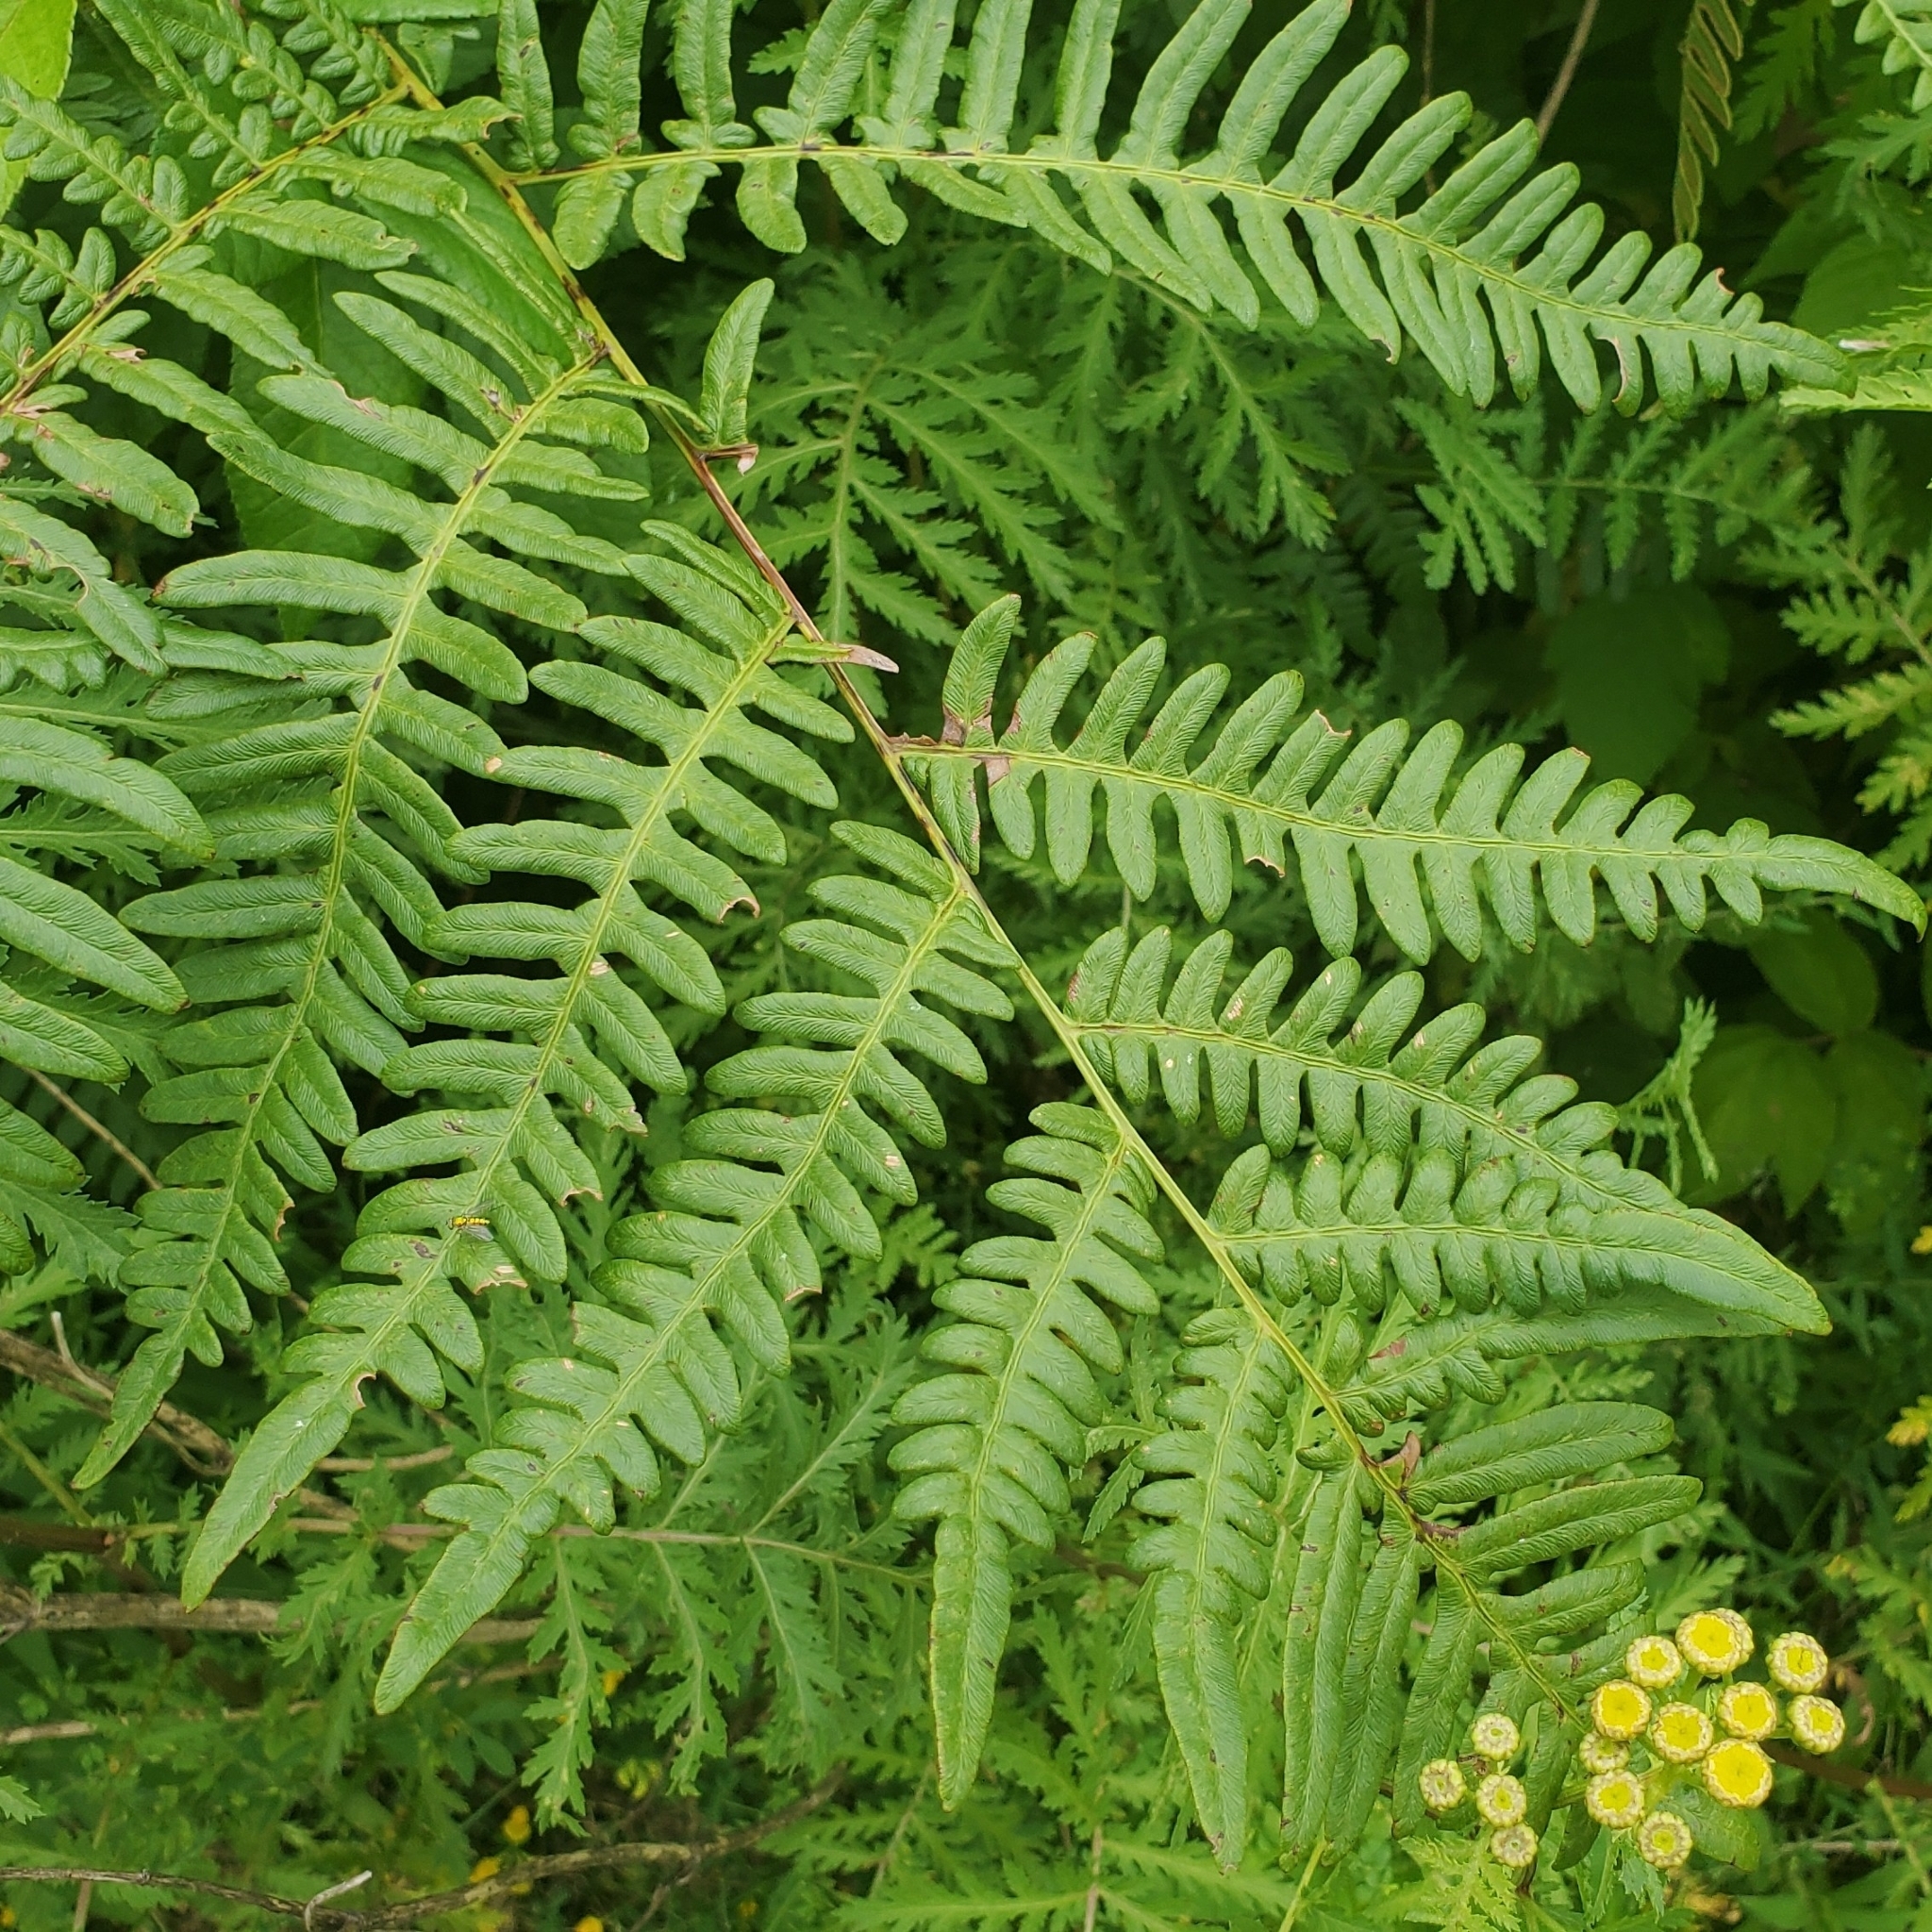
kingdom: Plantae
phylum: Tracheophyta
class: Polypodiopsida
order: Polypodiales
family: Dennstaedtiaceae
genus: Pteridium
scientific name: Pteridium aquilinum
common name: Bracken
